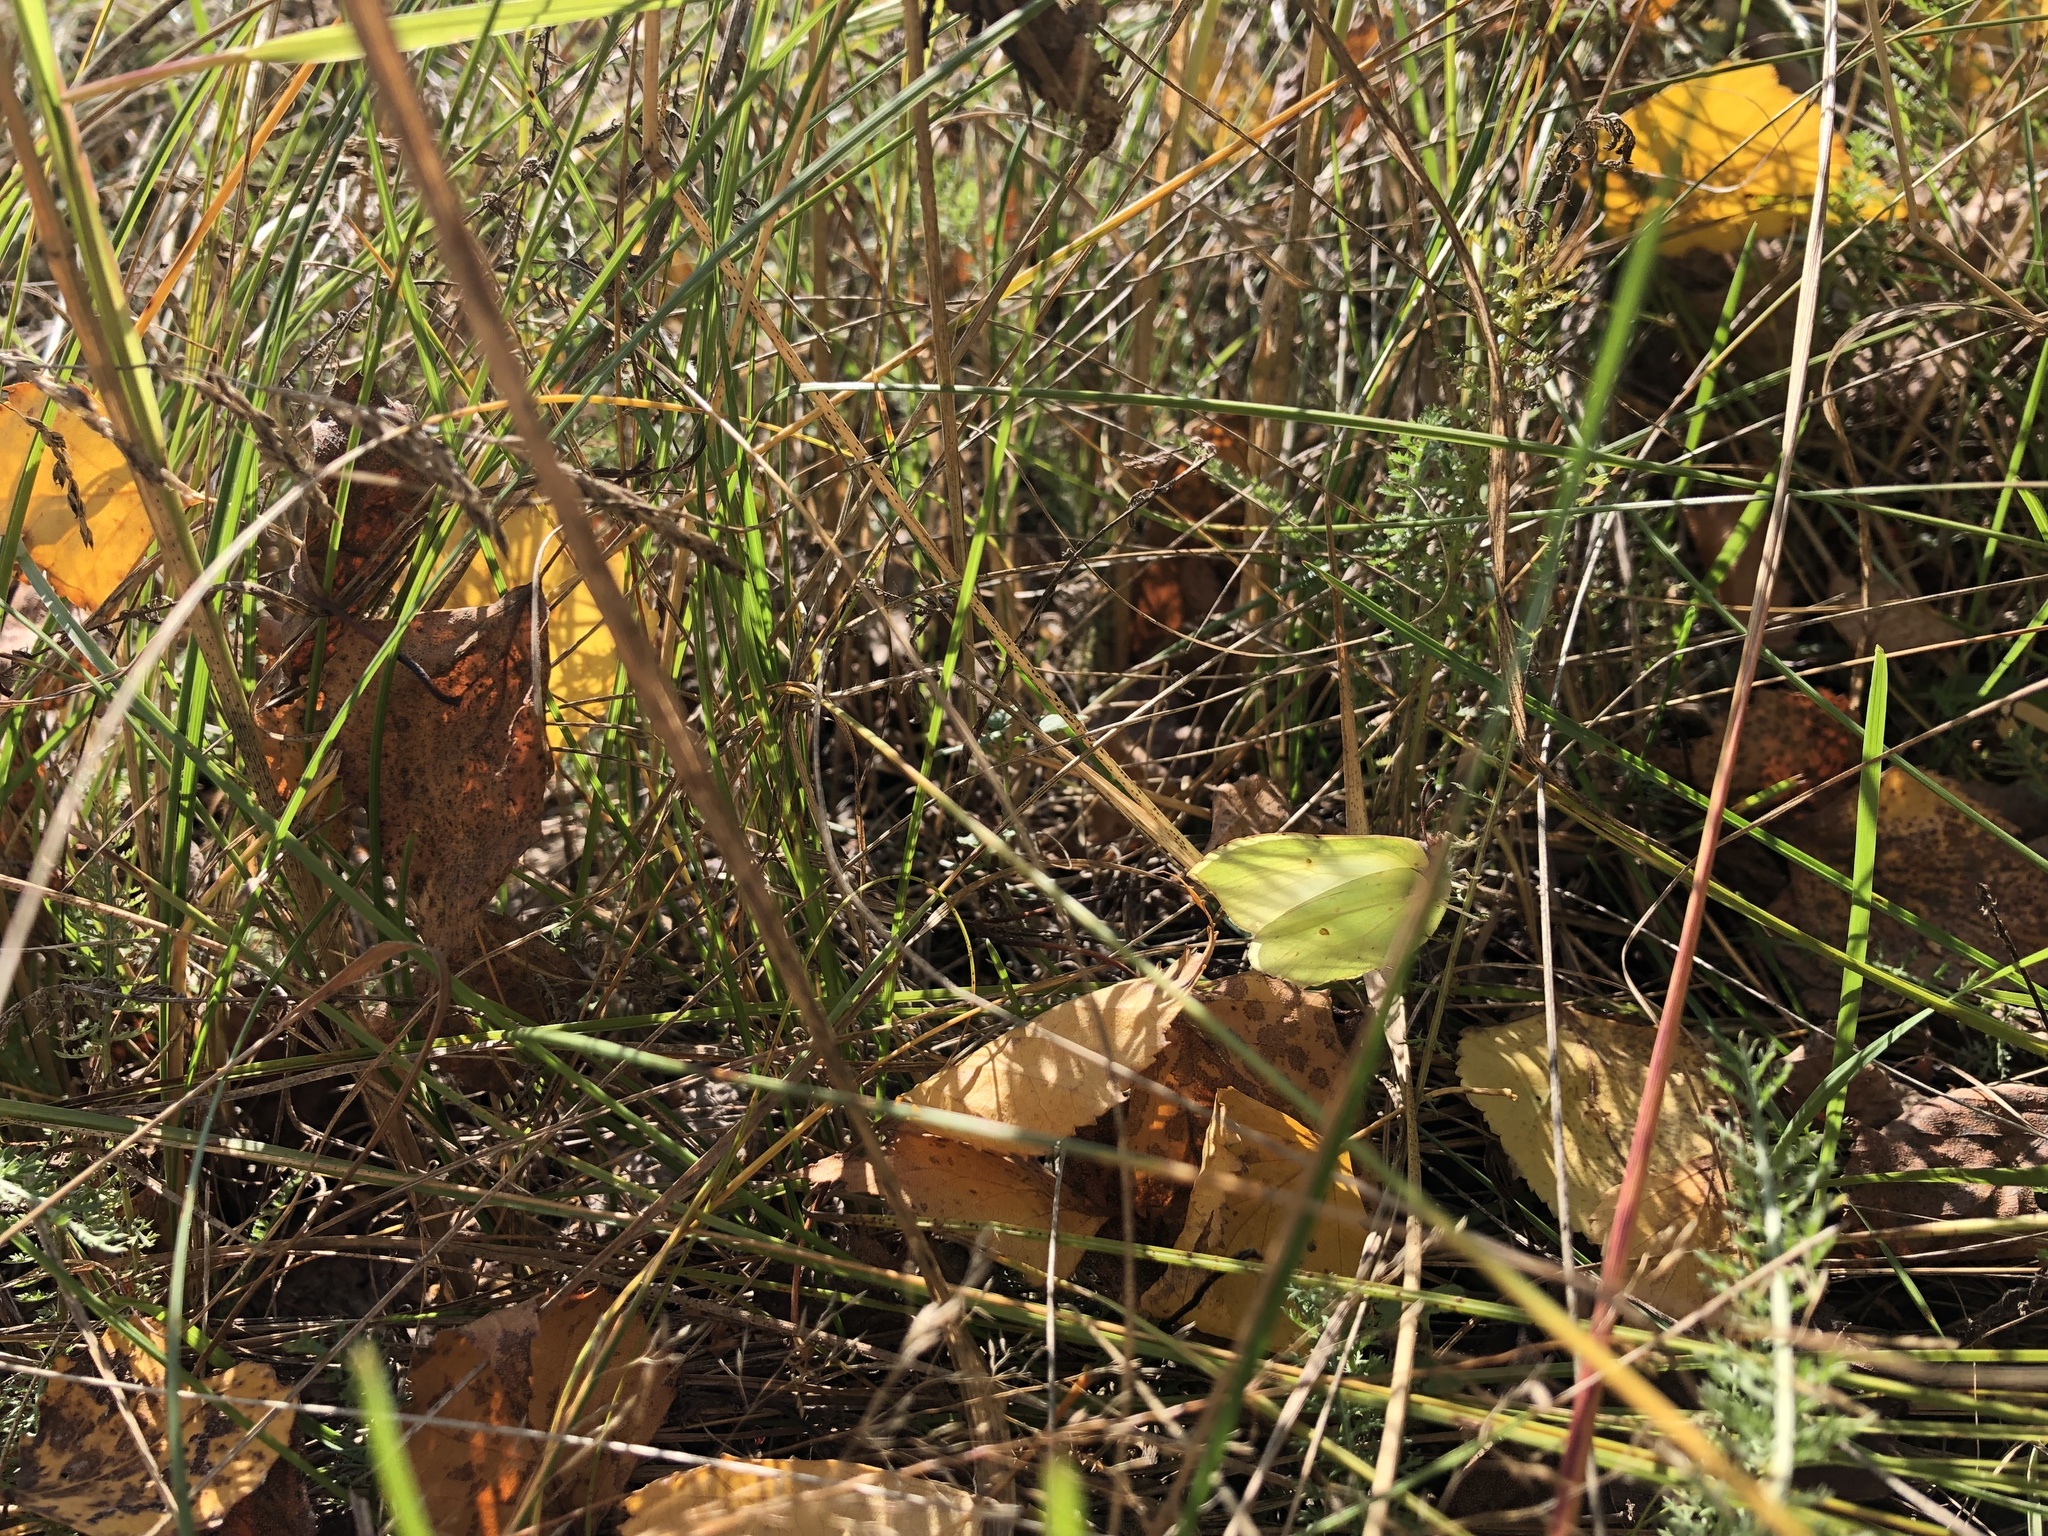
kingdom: Animalia
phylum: Arthropoda
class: Insecta
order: Lepidoptera
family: Pieridae
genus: Gonepteryx
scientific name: Gonepteryx rhamni
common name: Brimstone
